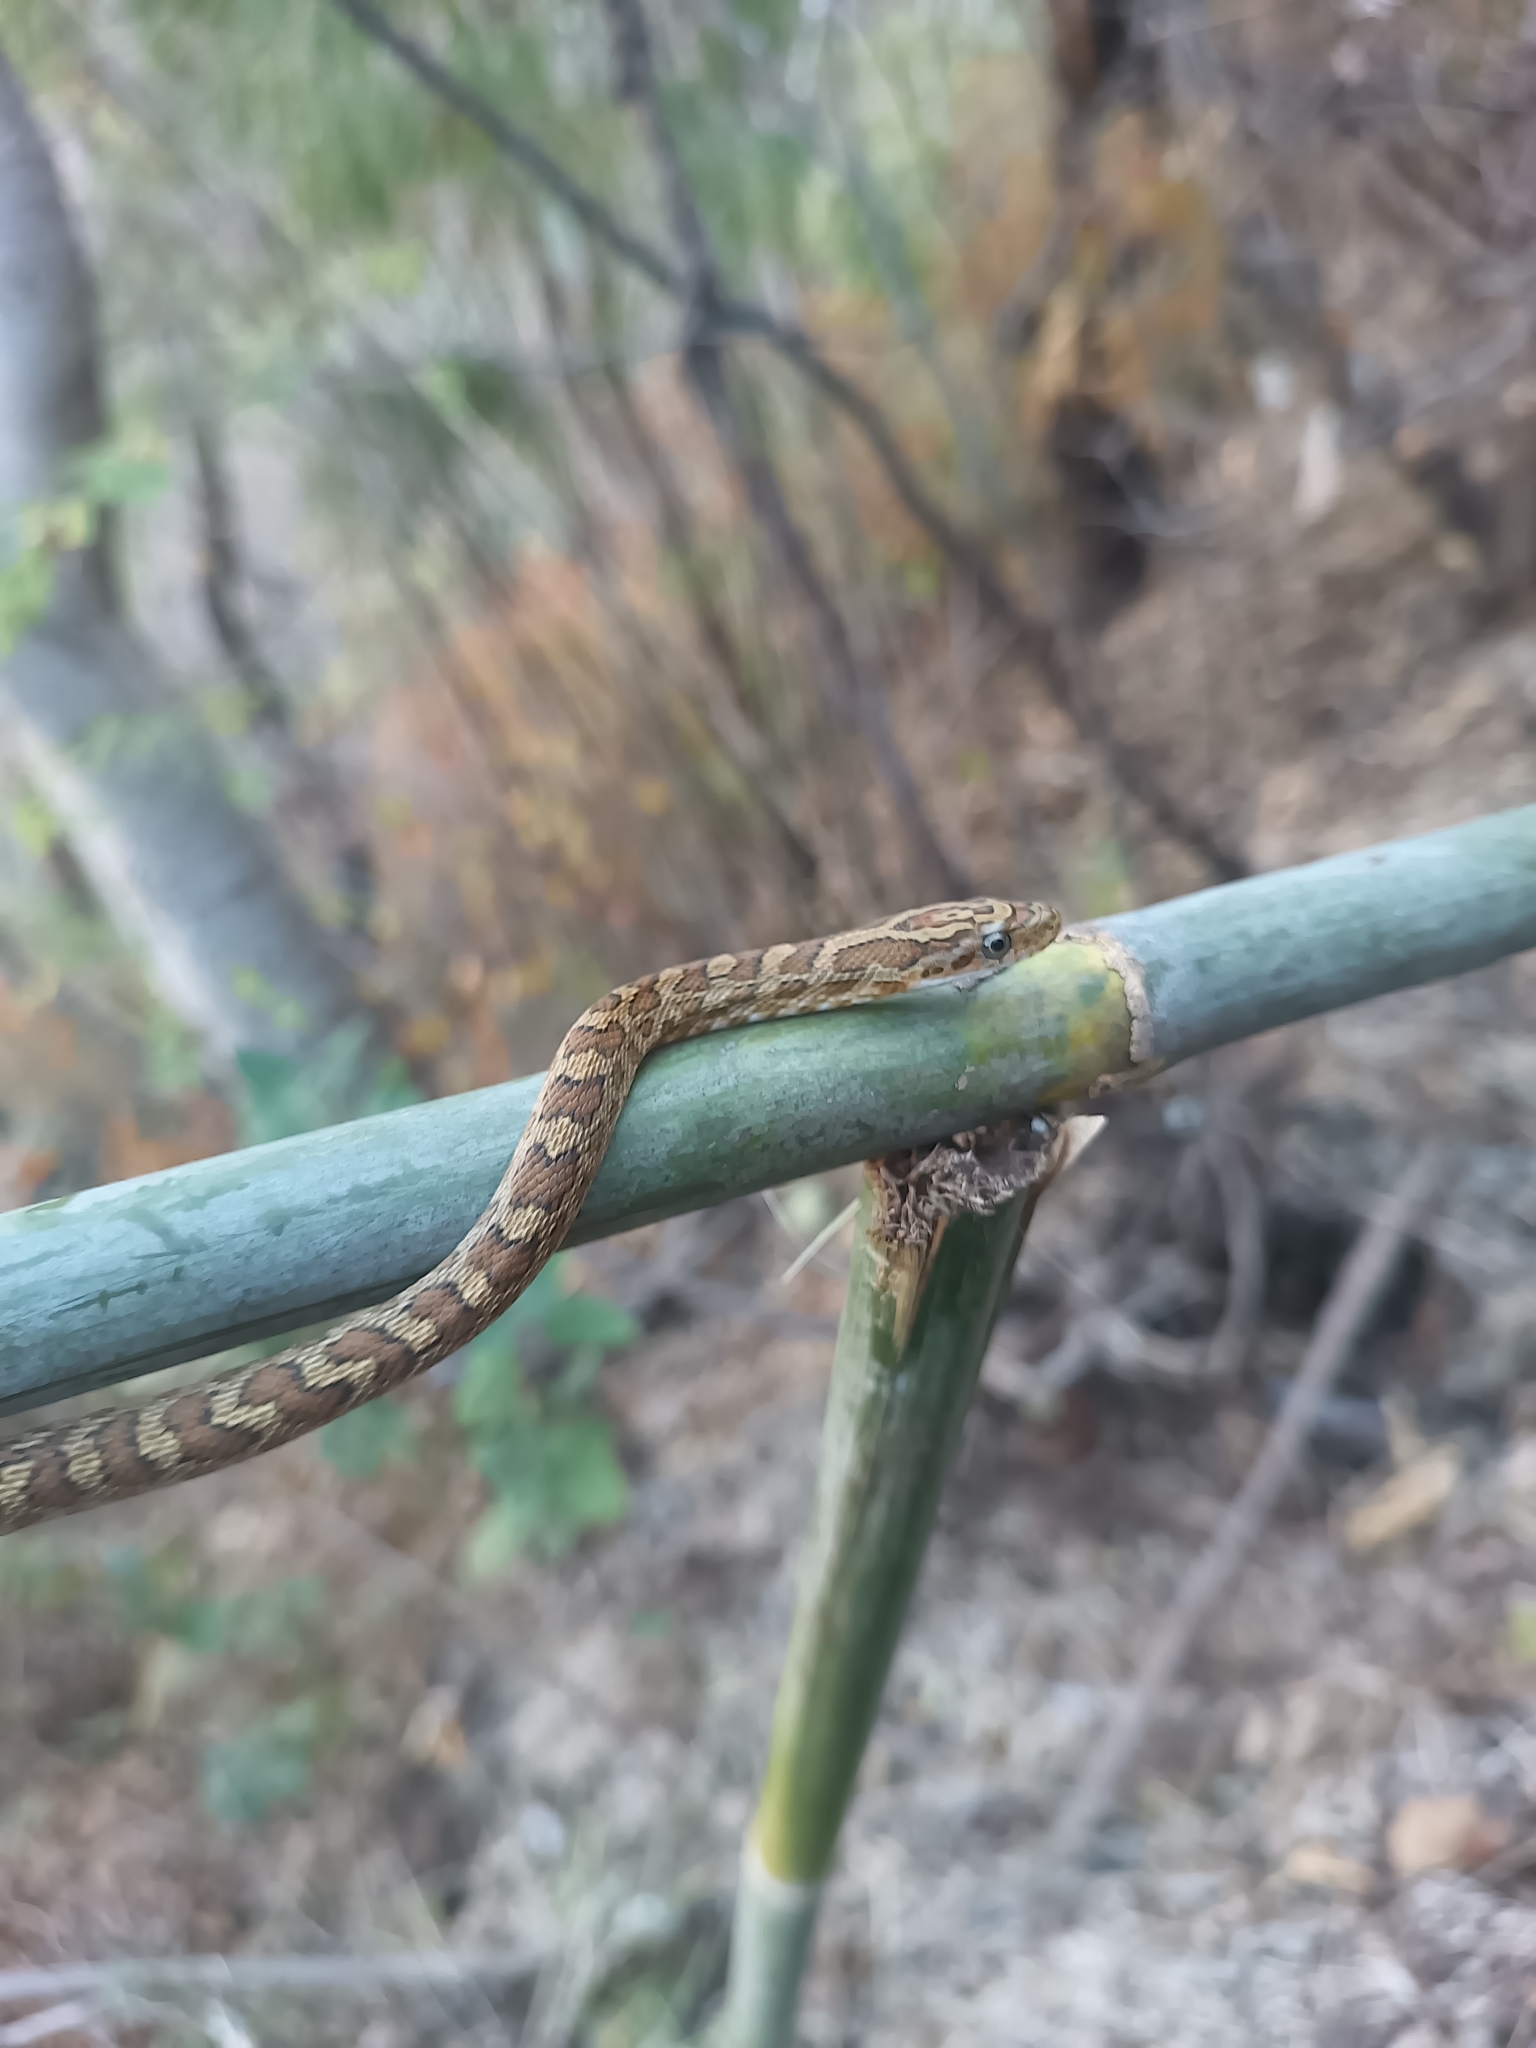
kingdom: Animalia
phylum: Chordata
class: Squamata
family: Colubridae
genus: Senticolis
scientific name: Senticolis triaspis
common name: Green rat snake
